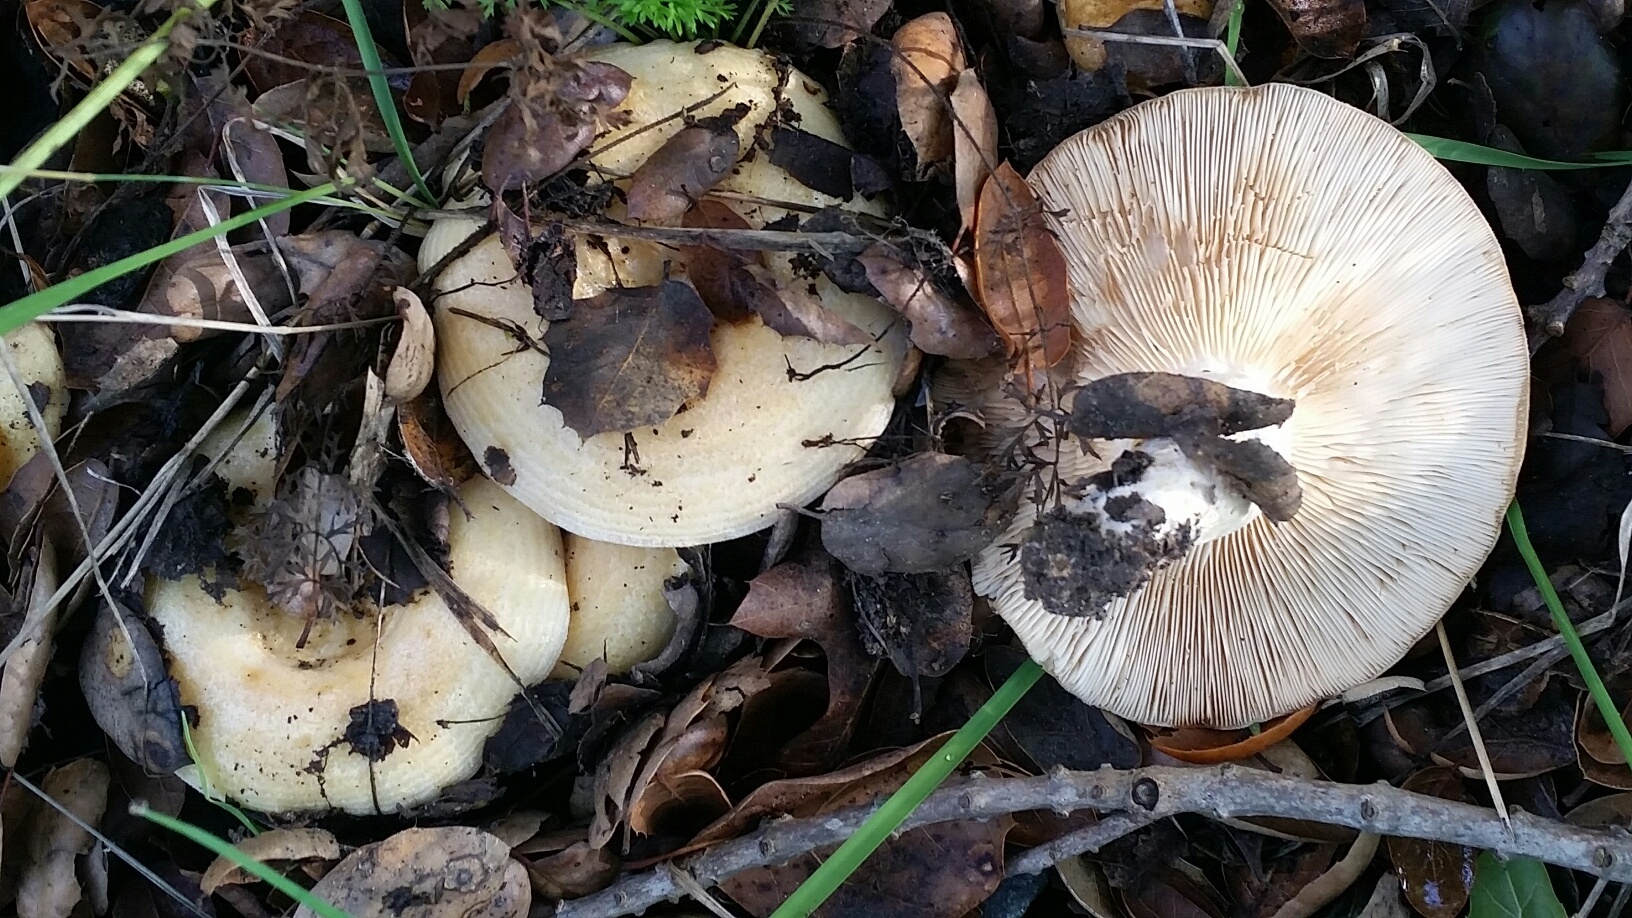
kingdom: Fungi
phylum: Basidiomycota
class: Agaricomycetes
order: Russulales
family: Russulaceae
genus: Lactarius
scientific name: Lactarius alnicola
